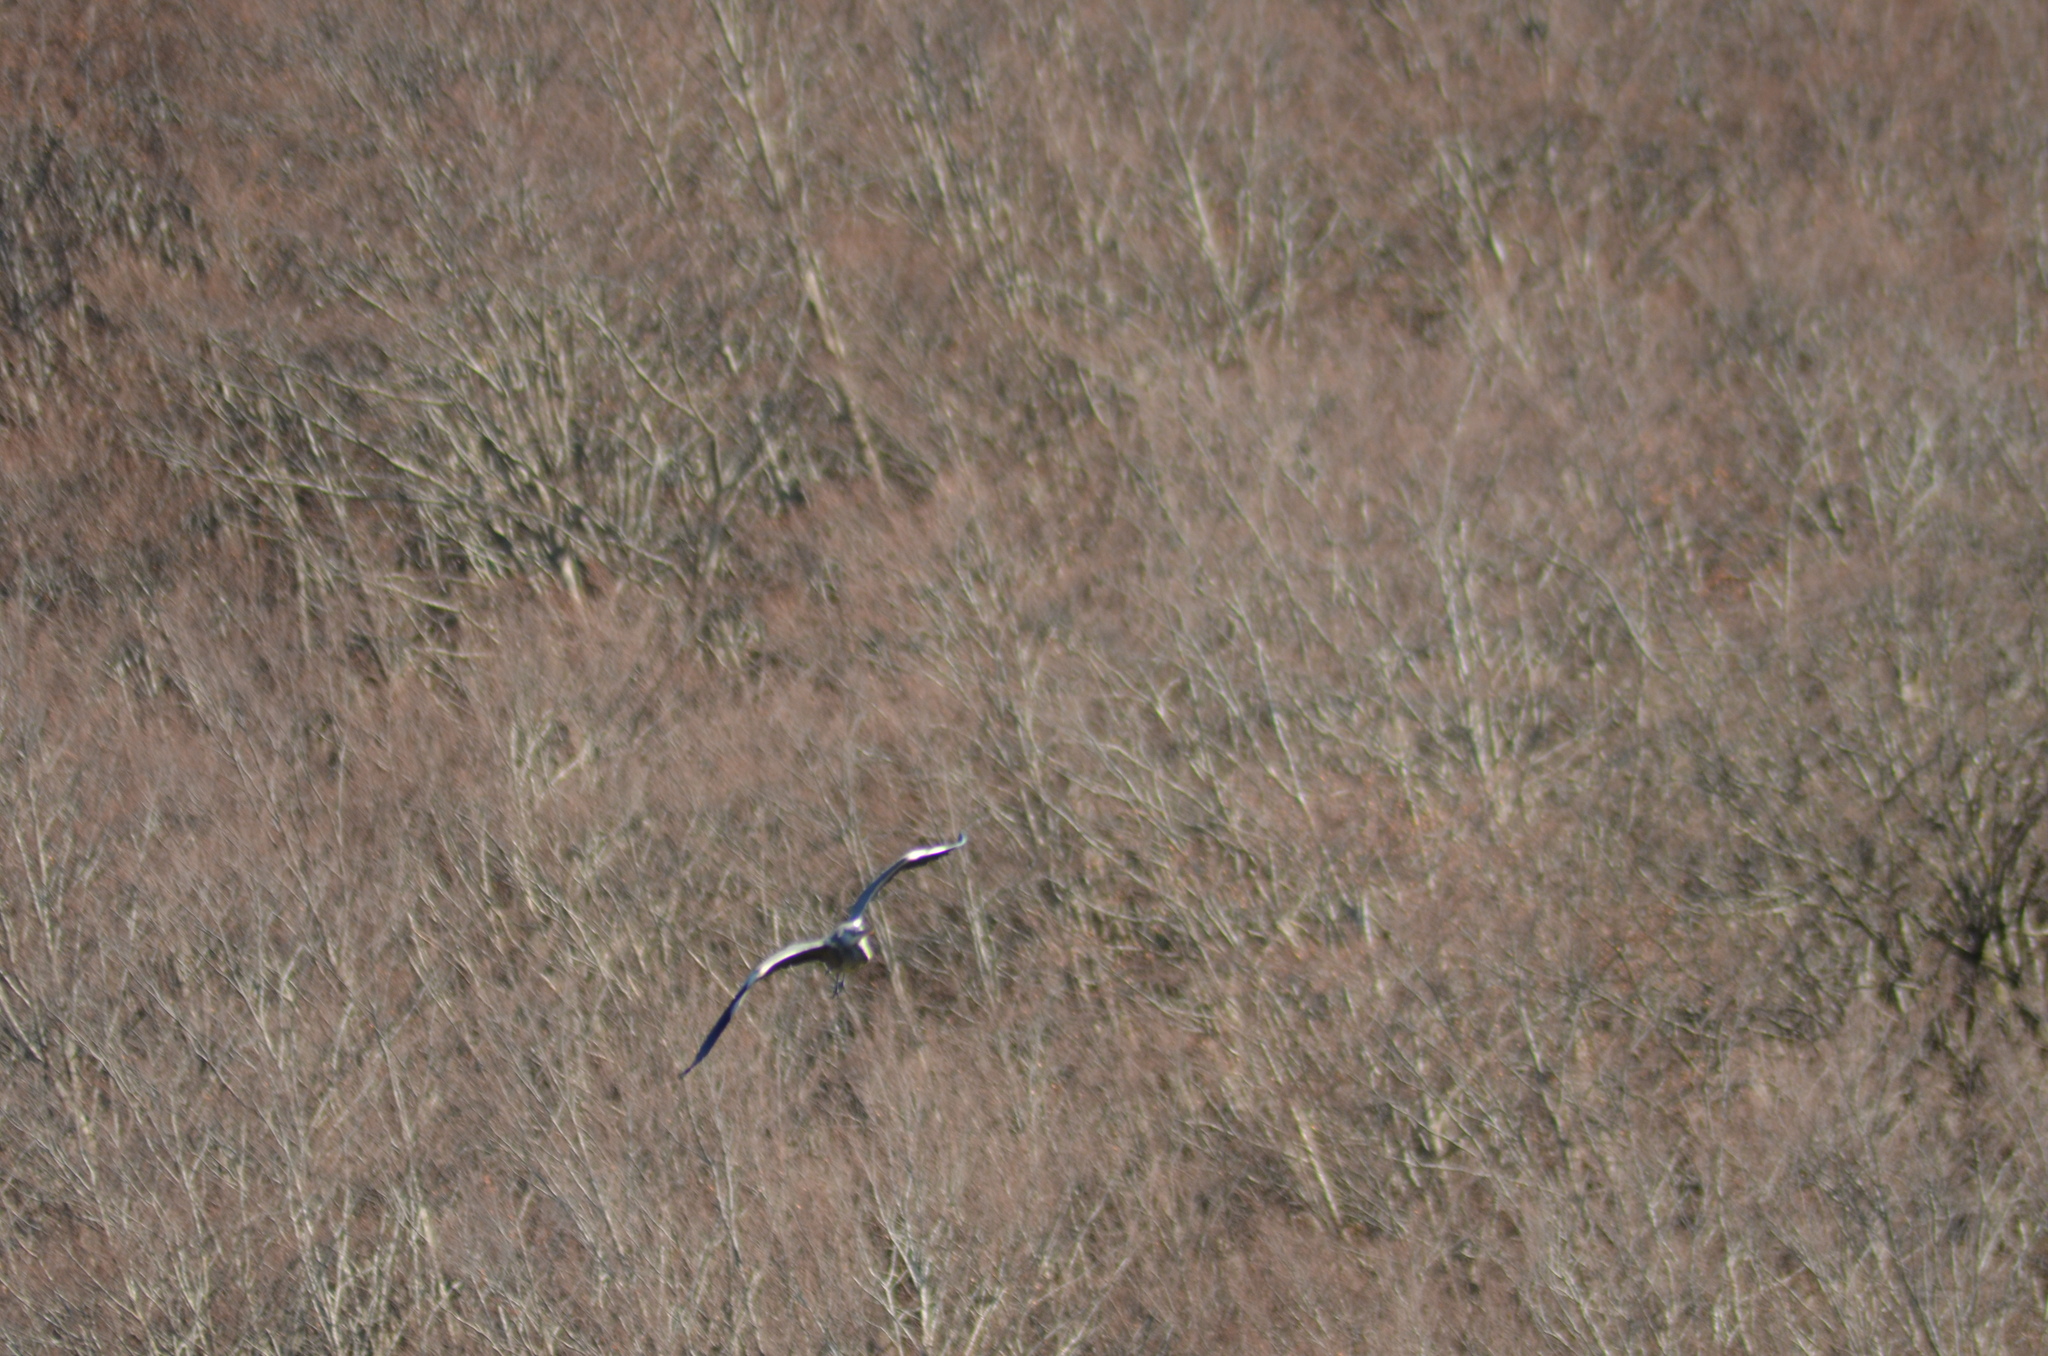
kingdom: Animalia
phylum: Chordata
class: Aves
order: Pelecaniformes
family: Ardeidae
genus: Ardea
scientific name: Ardea cinerea
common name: Grey heron
